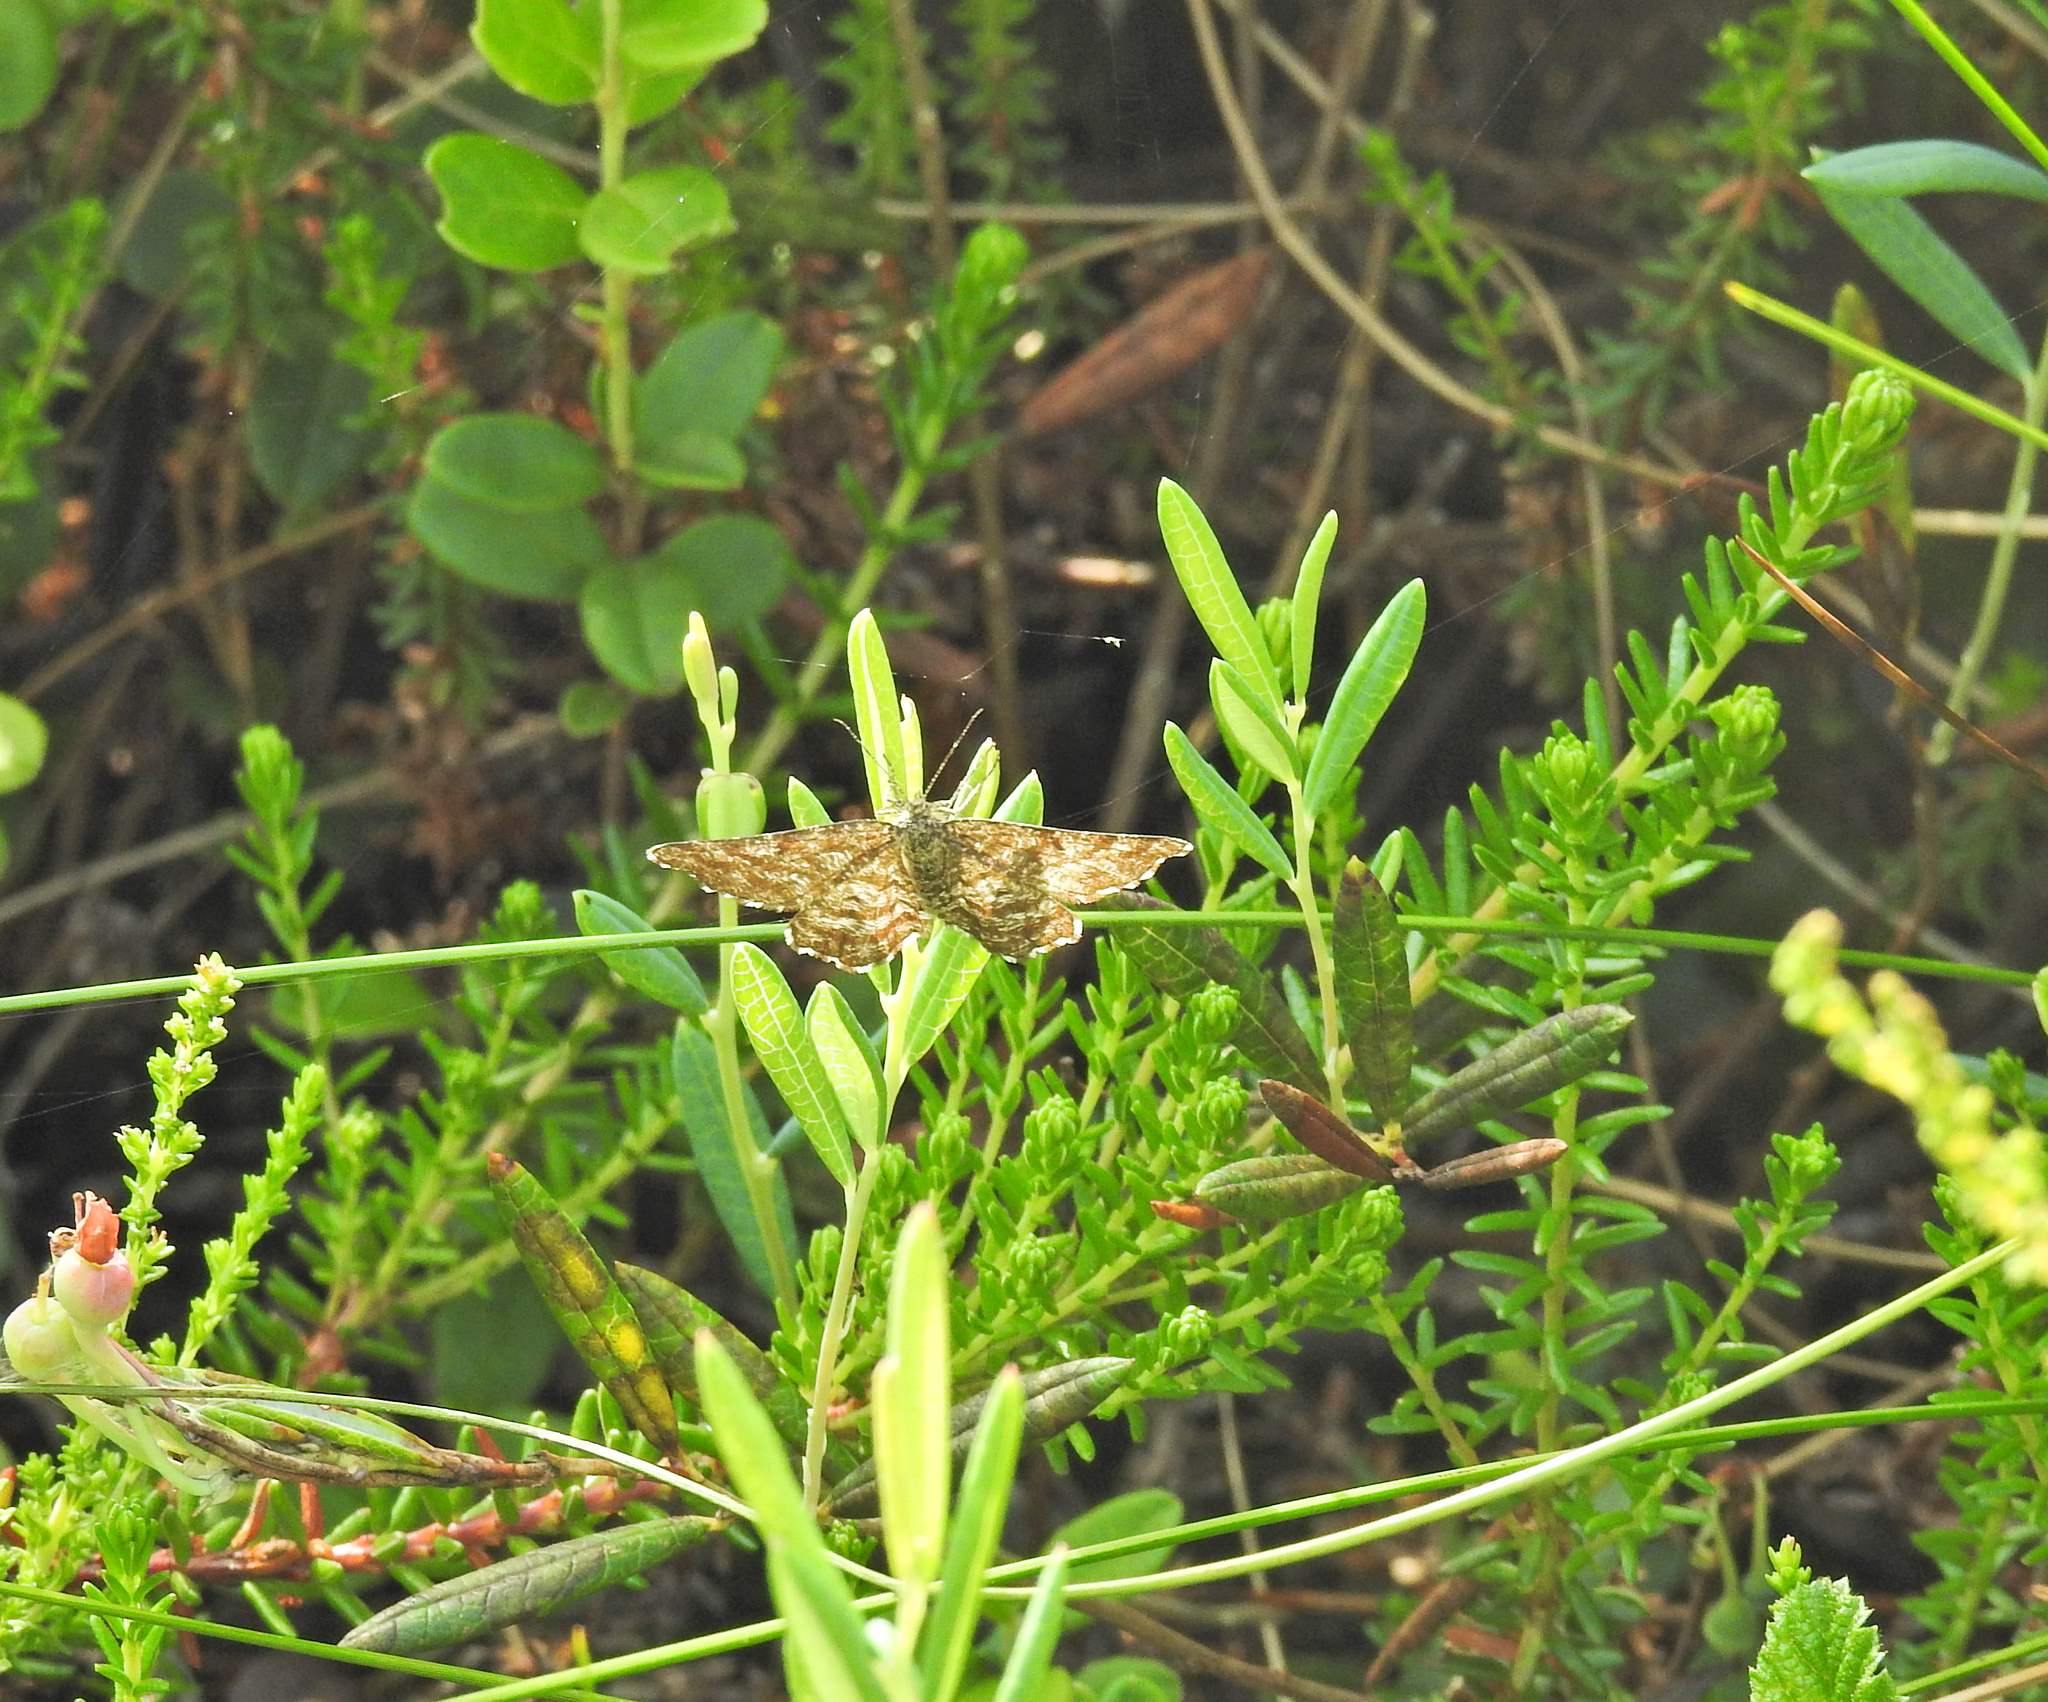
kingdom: Animalia
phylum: Arthropoda
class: Insecta
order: Lepidoptera
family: Geometridae
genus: Ematurga
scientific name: Ematurga atomaria
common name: Common heath
